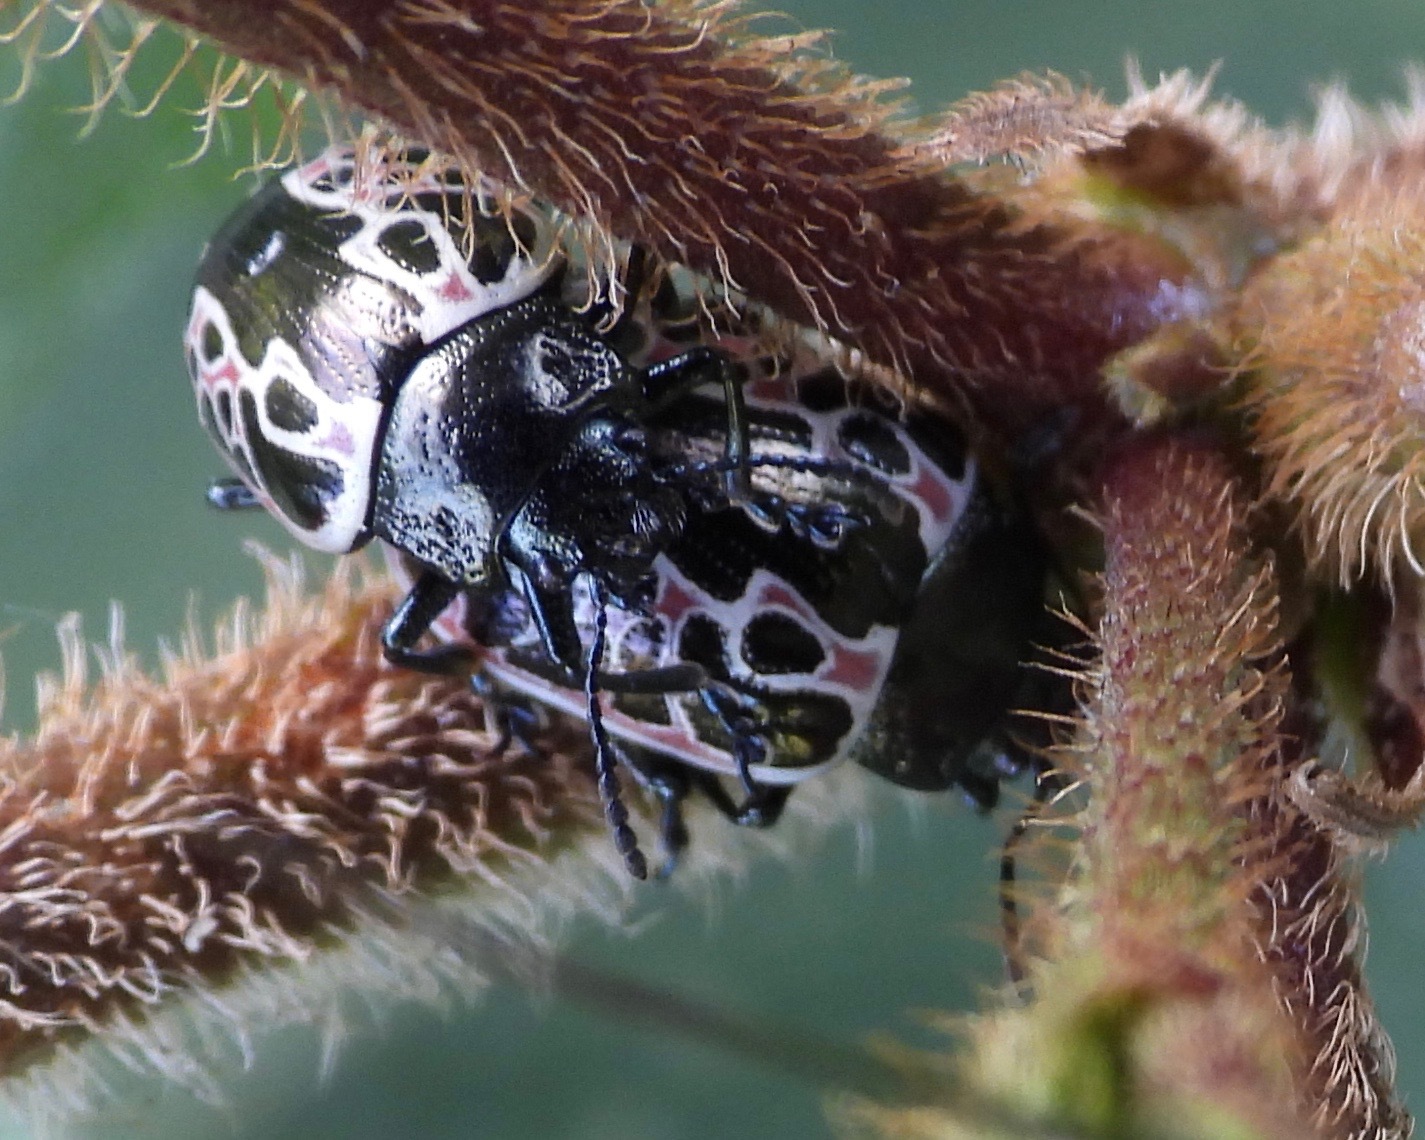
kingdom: Animalia
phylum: Arthropoda
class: Insecta
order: Coleoptera
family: Chrysomelidae
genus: Calligrapha
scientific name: Calligrapha diversa
